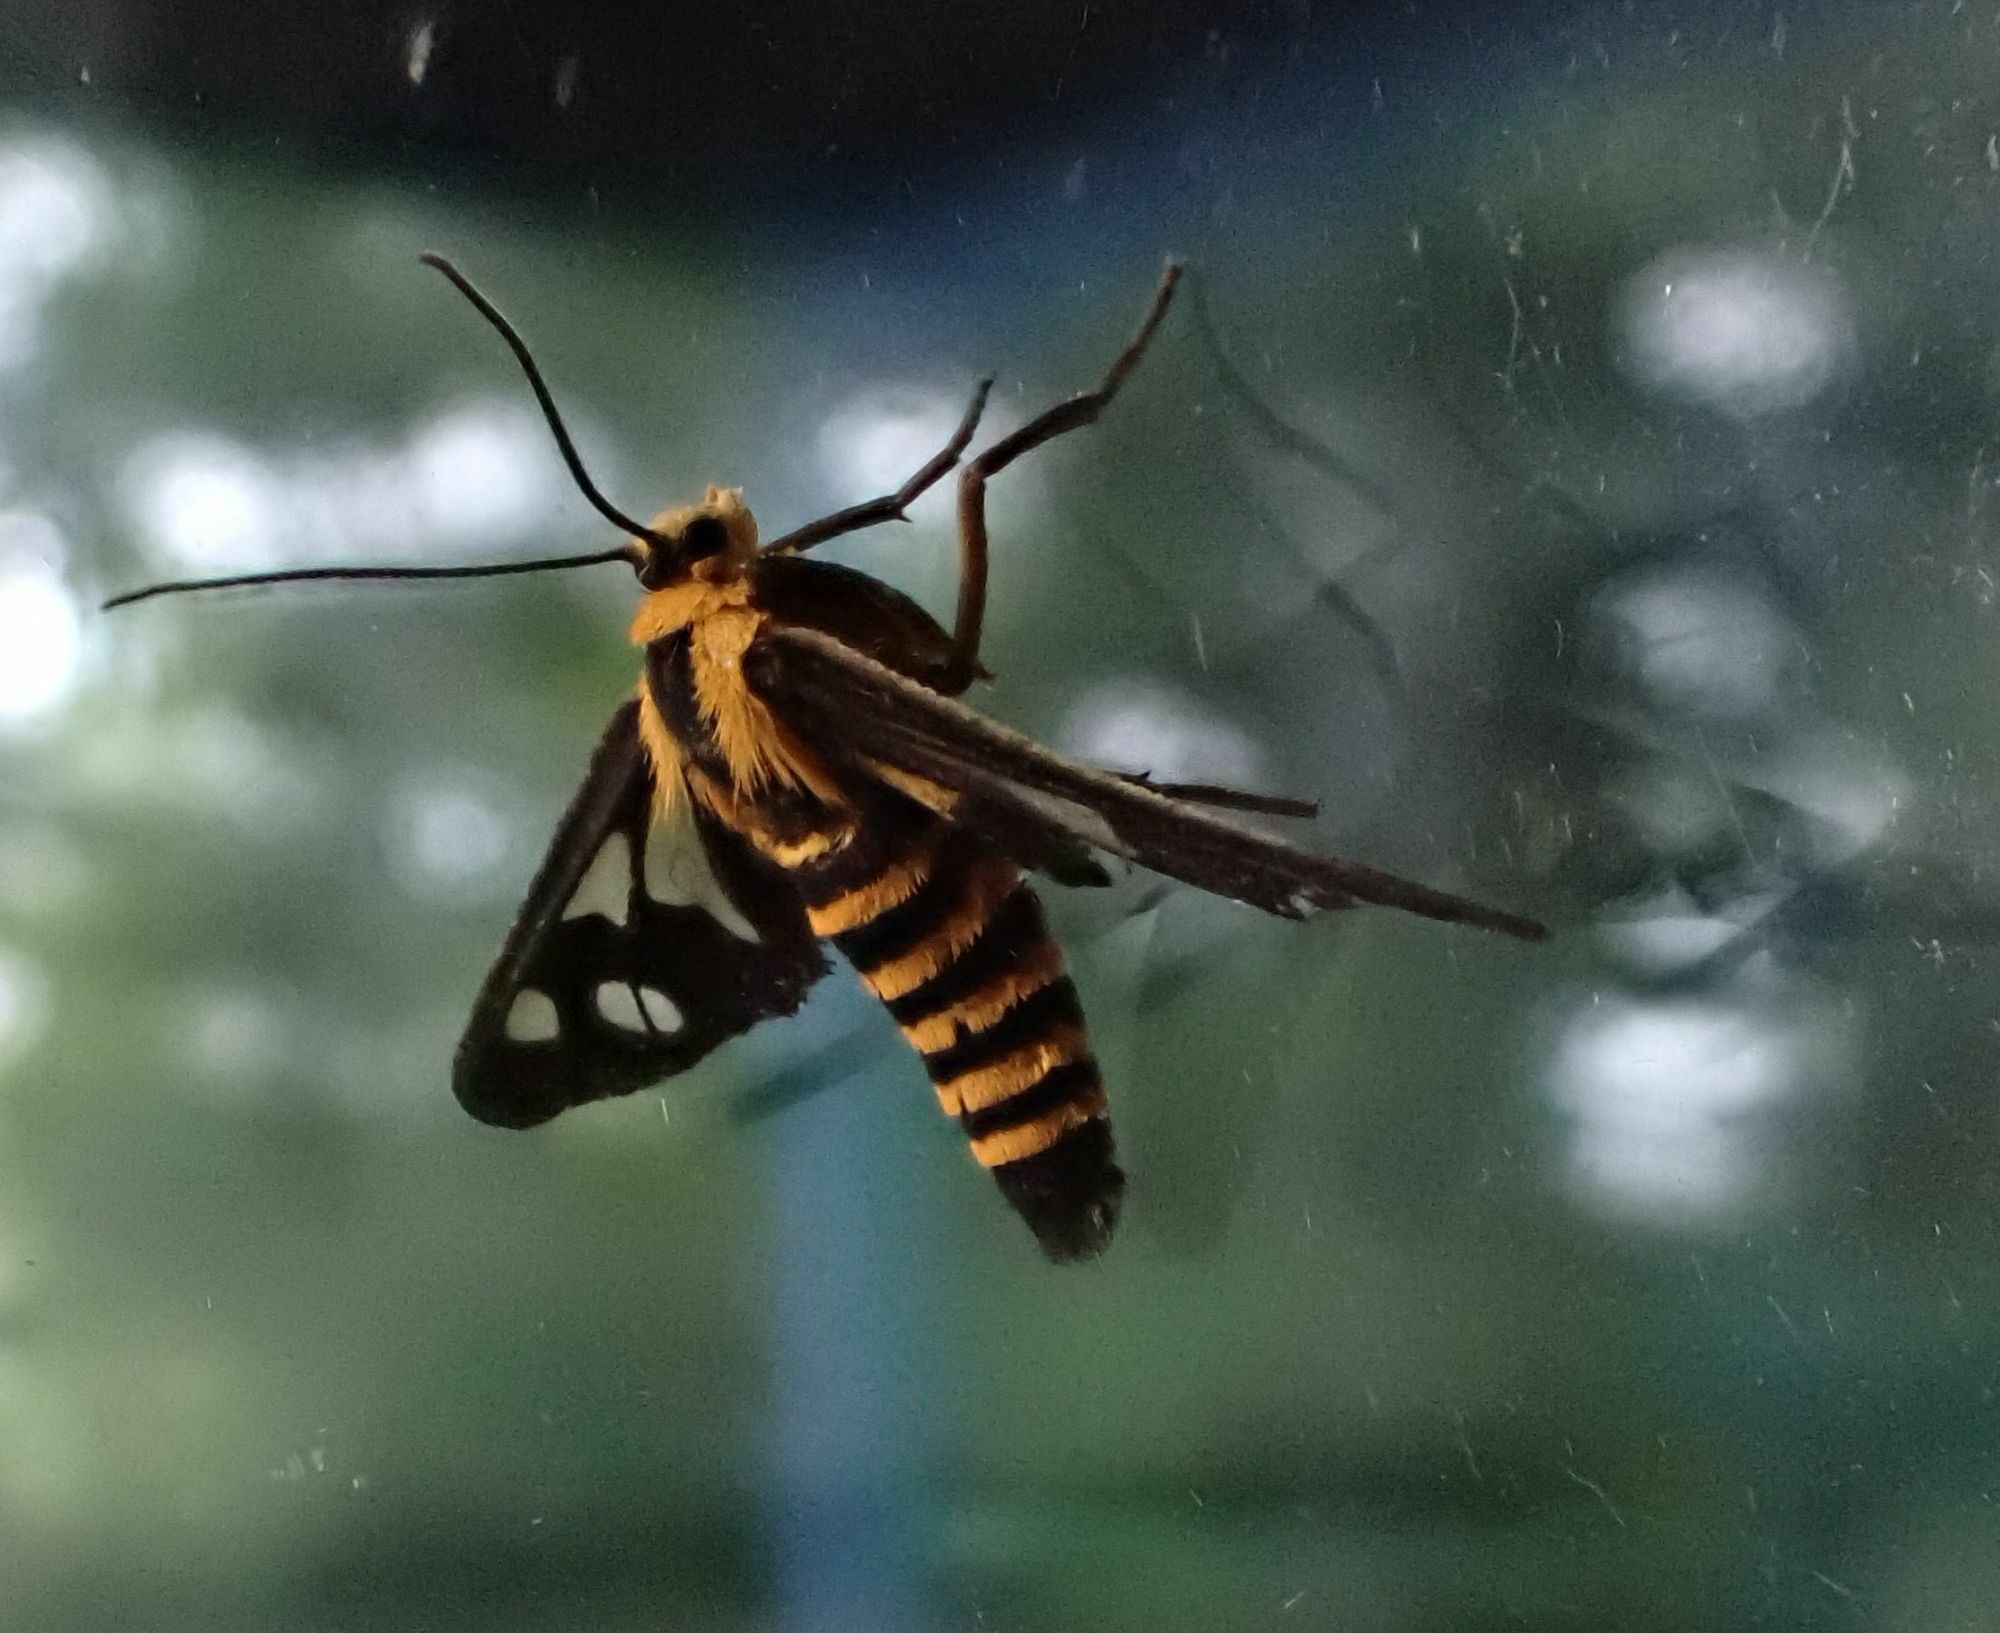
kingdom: Animalia
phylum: Arthropoda
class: Insecta
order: Lepidoptera
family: Erebidae
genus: Eressa
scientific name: Eressa rhysoptila
